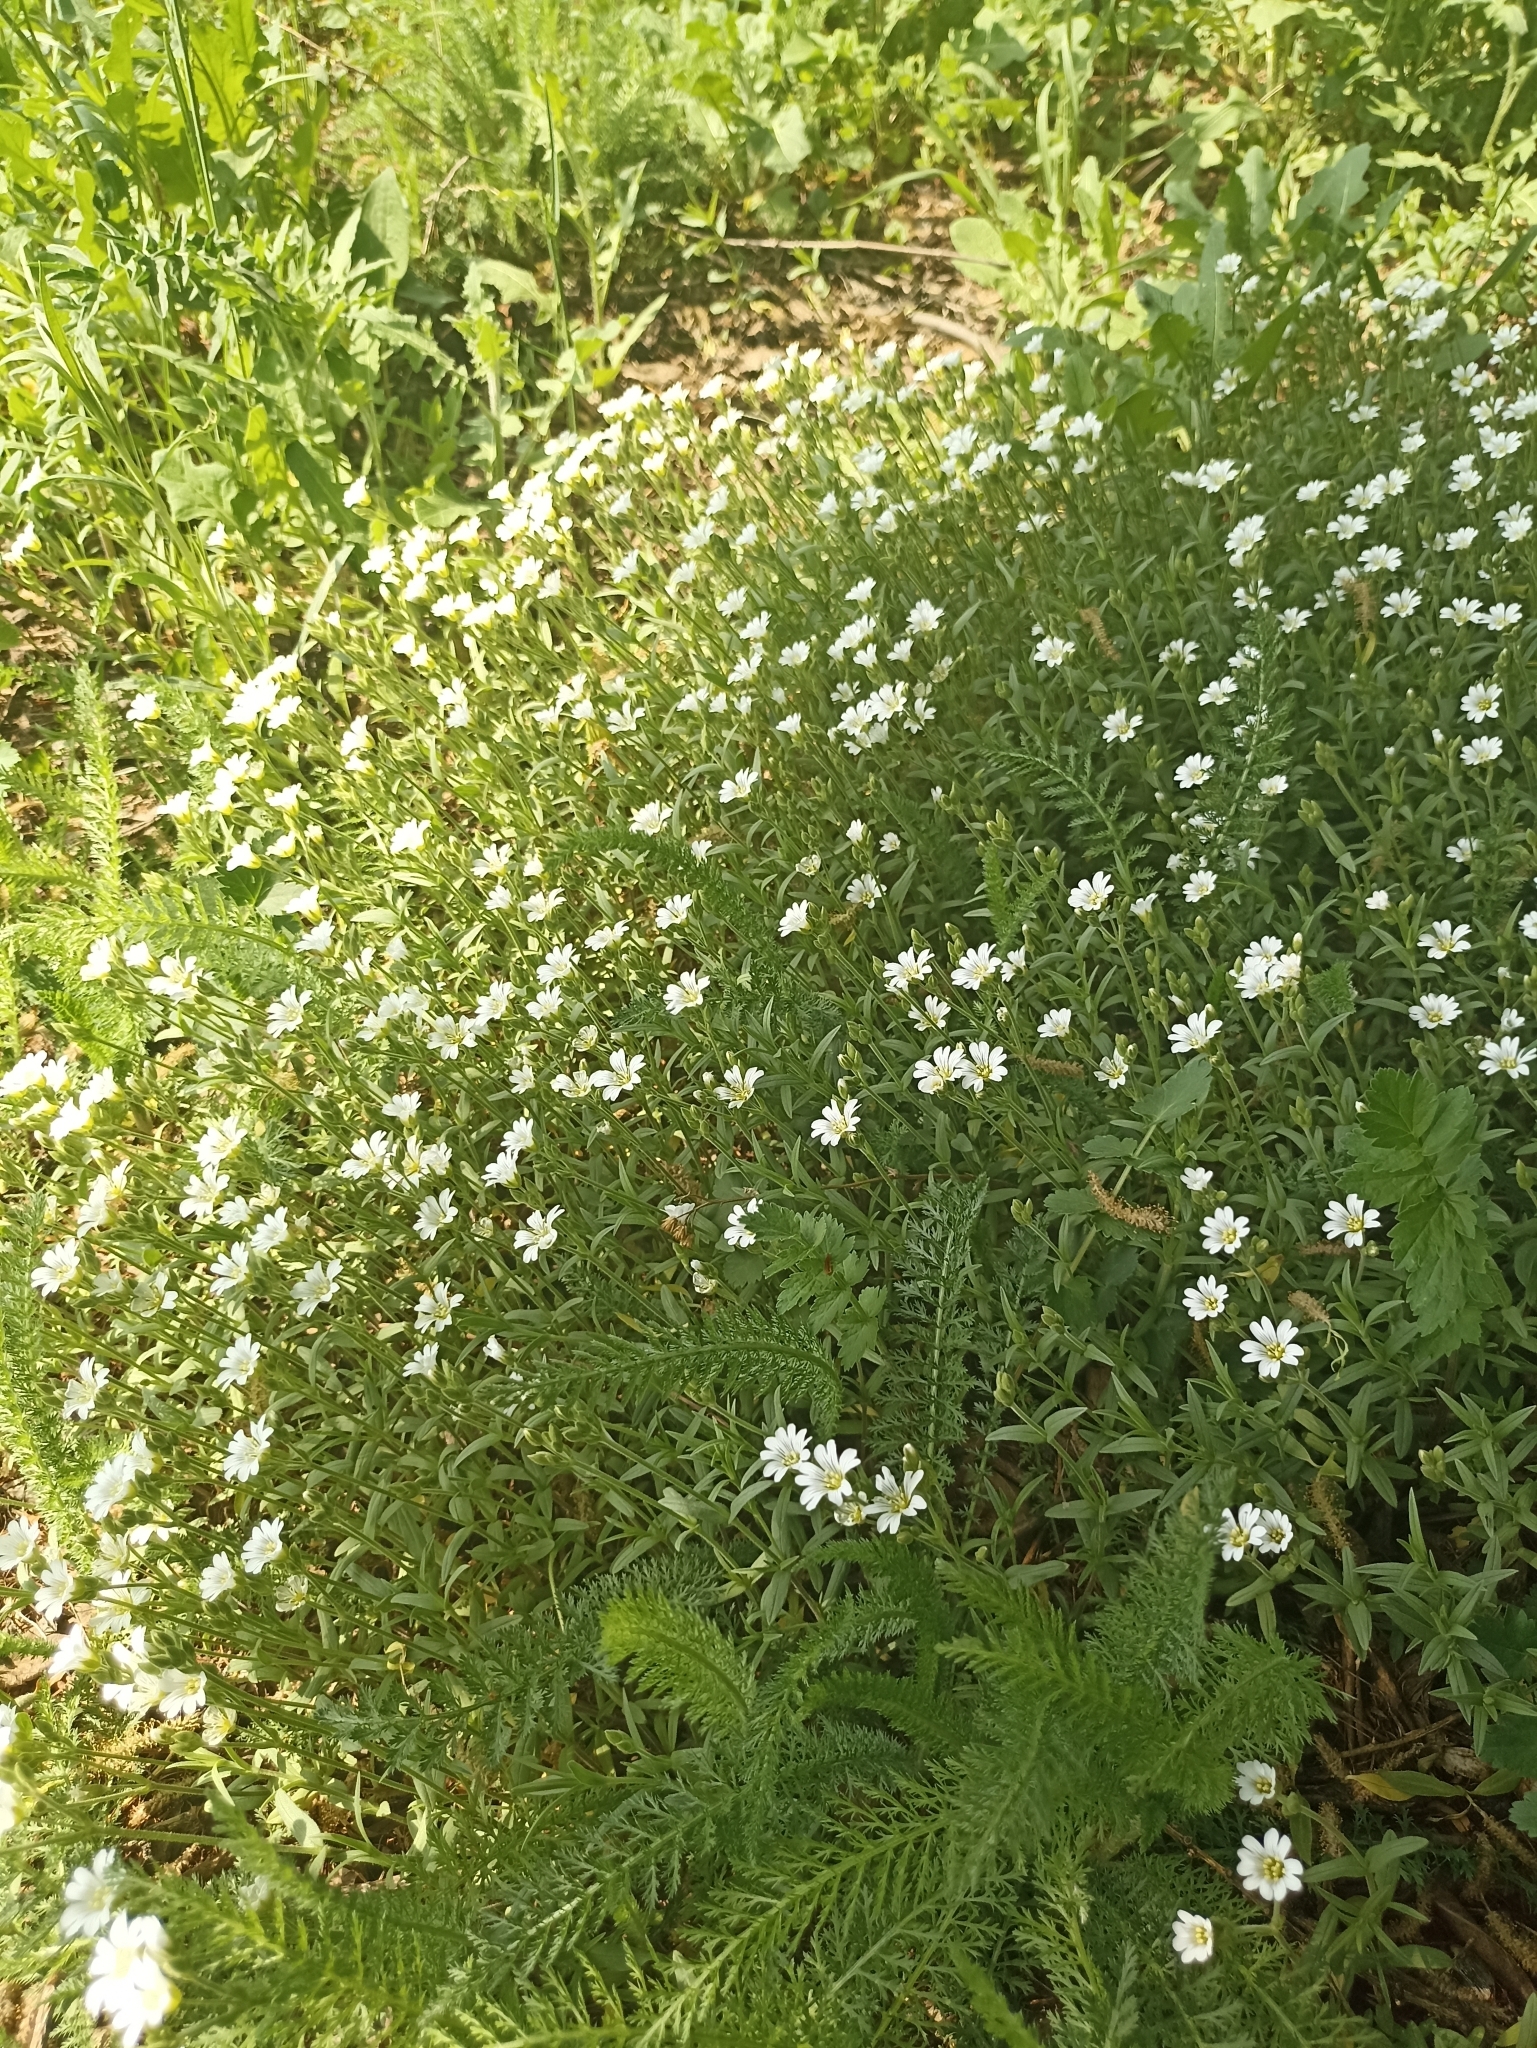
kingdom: Plantae
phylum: Tracheophyta
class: Magnoliopsida
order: Caryophyllales
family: Caryophyllaceae
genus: Cerastium
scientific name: Cerastium arvense
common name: Field mouse-ear
